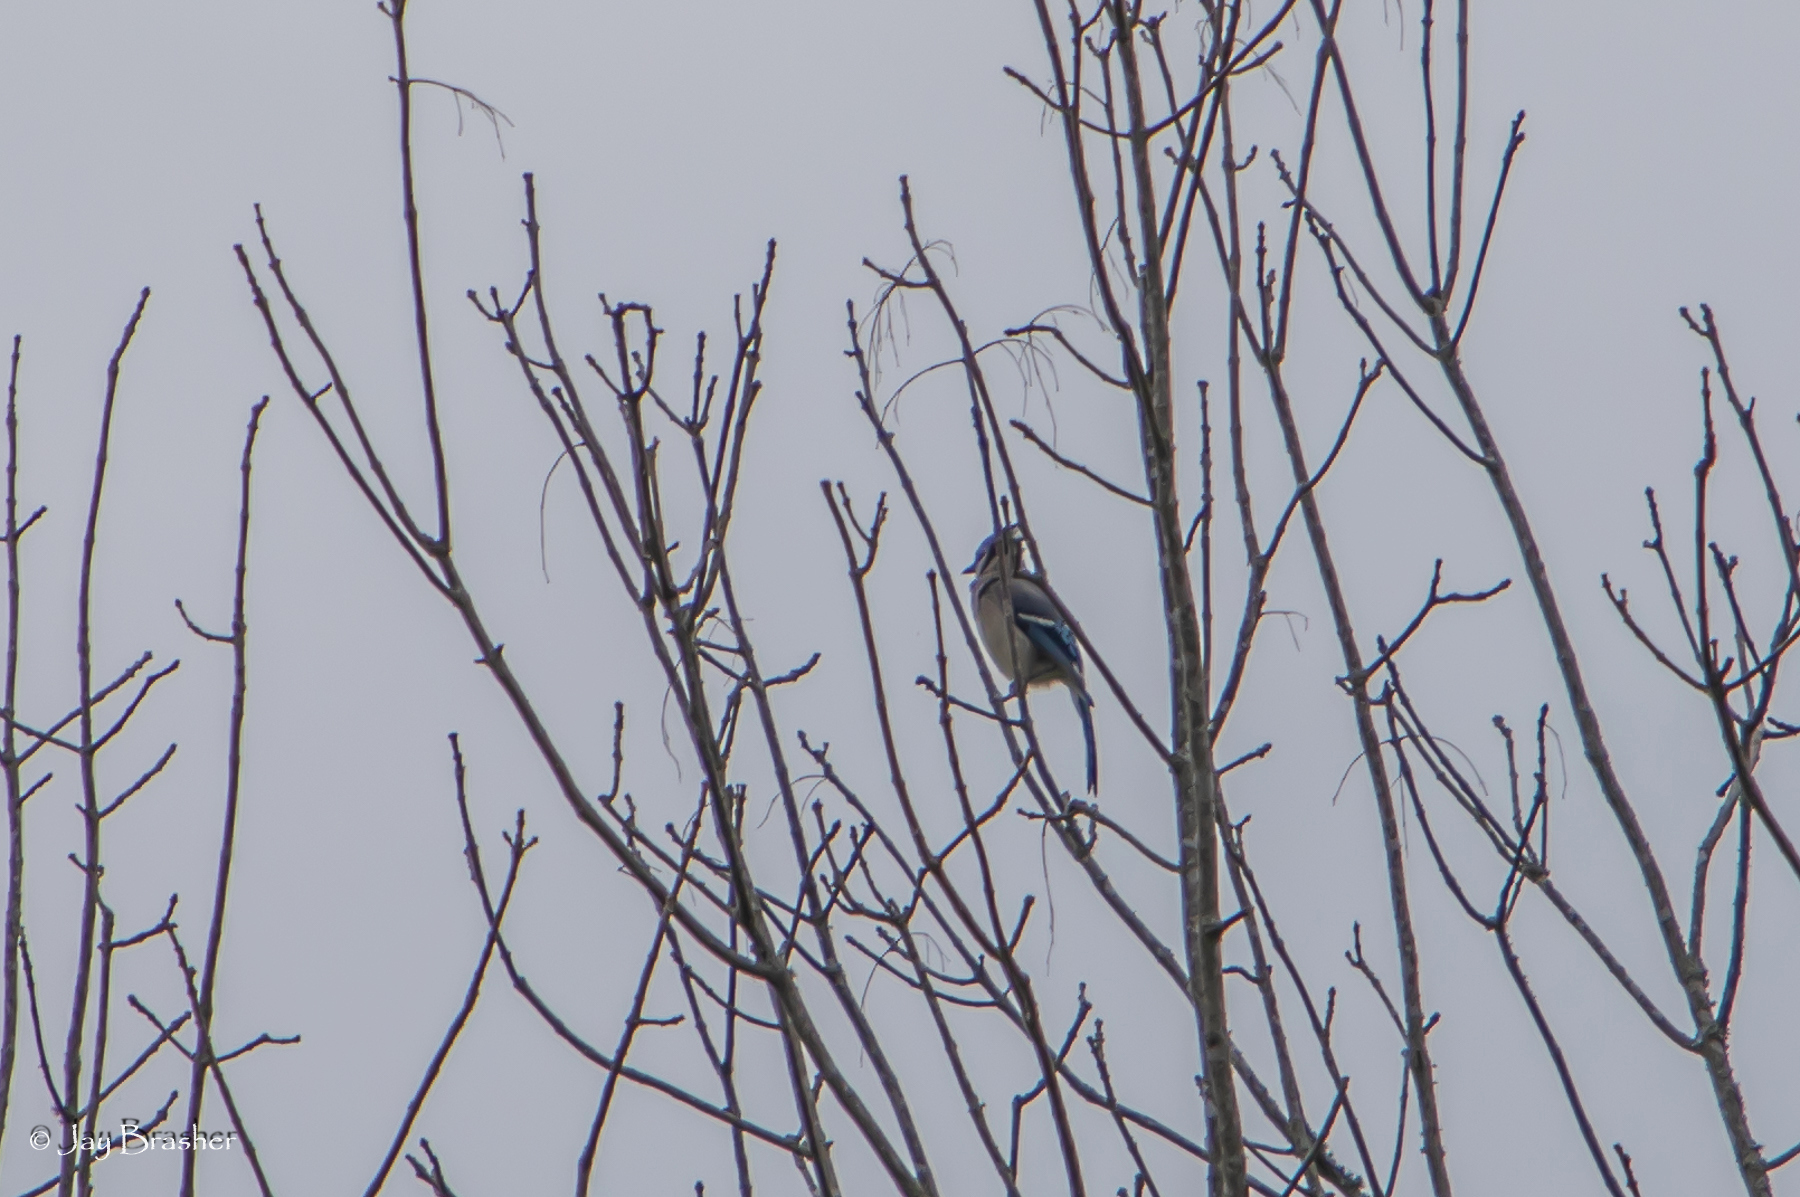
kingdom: Animalia
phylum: Chordata
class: Aves
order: Passeriformes
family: Corvidae
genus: Cyanocitta
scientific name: Cyanocitta cristata
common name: Blue jay
